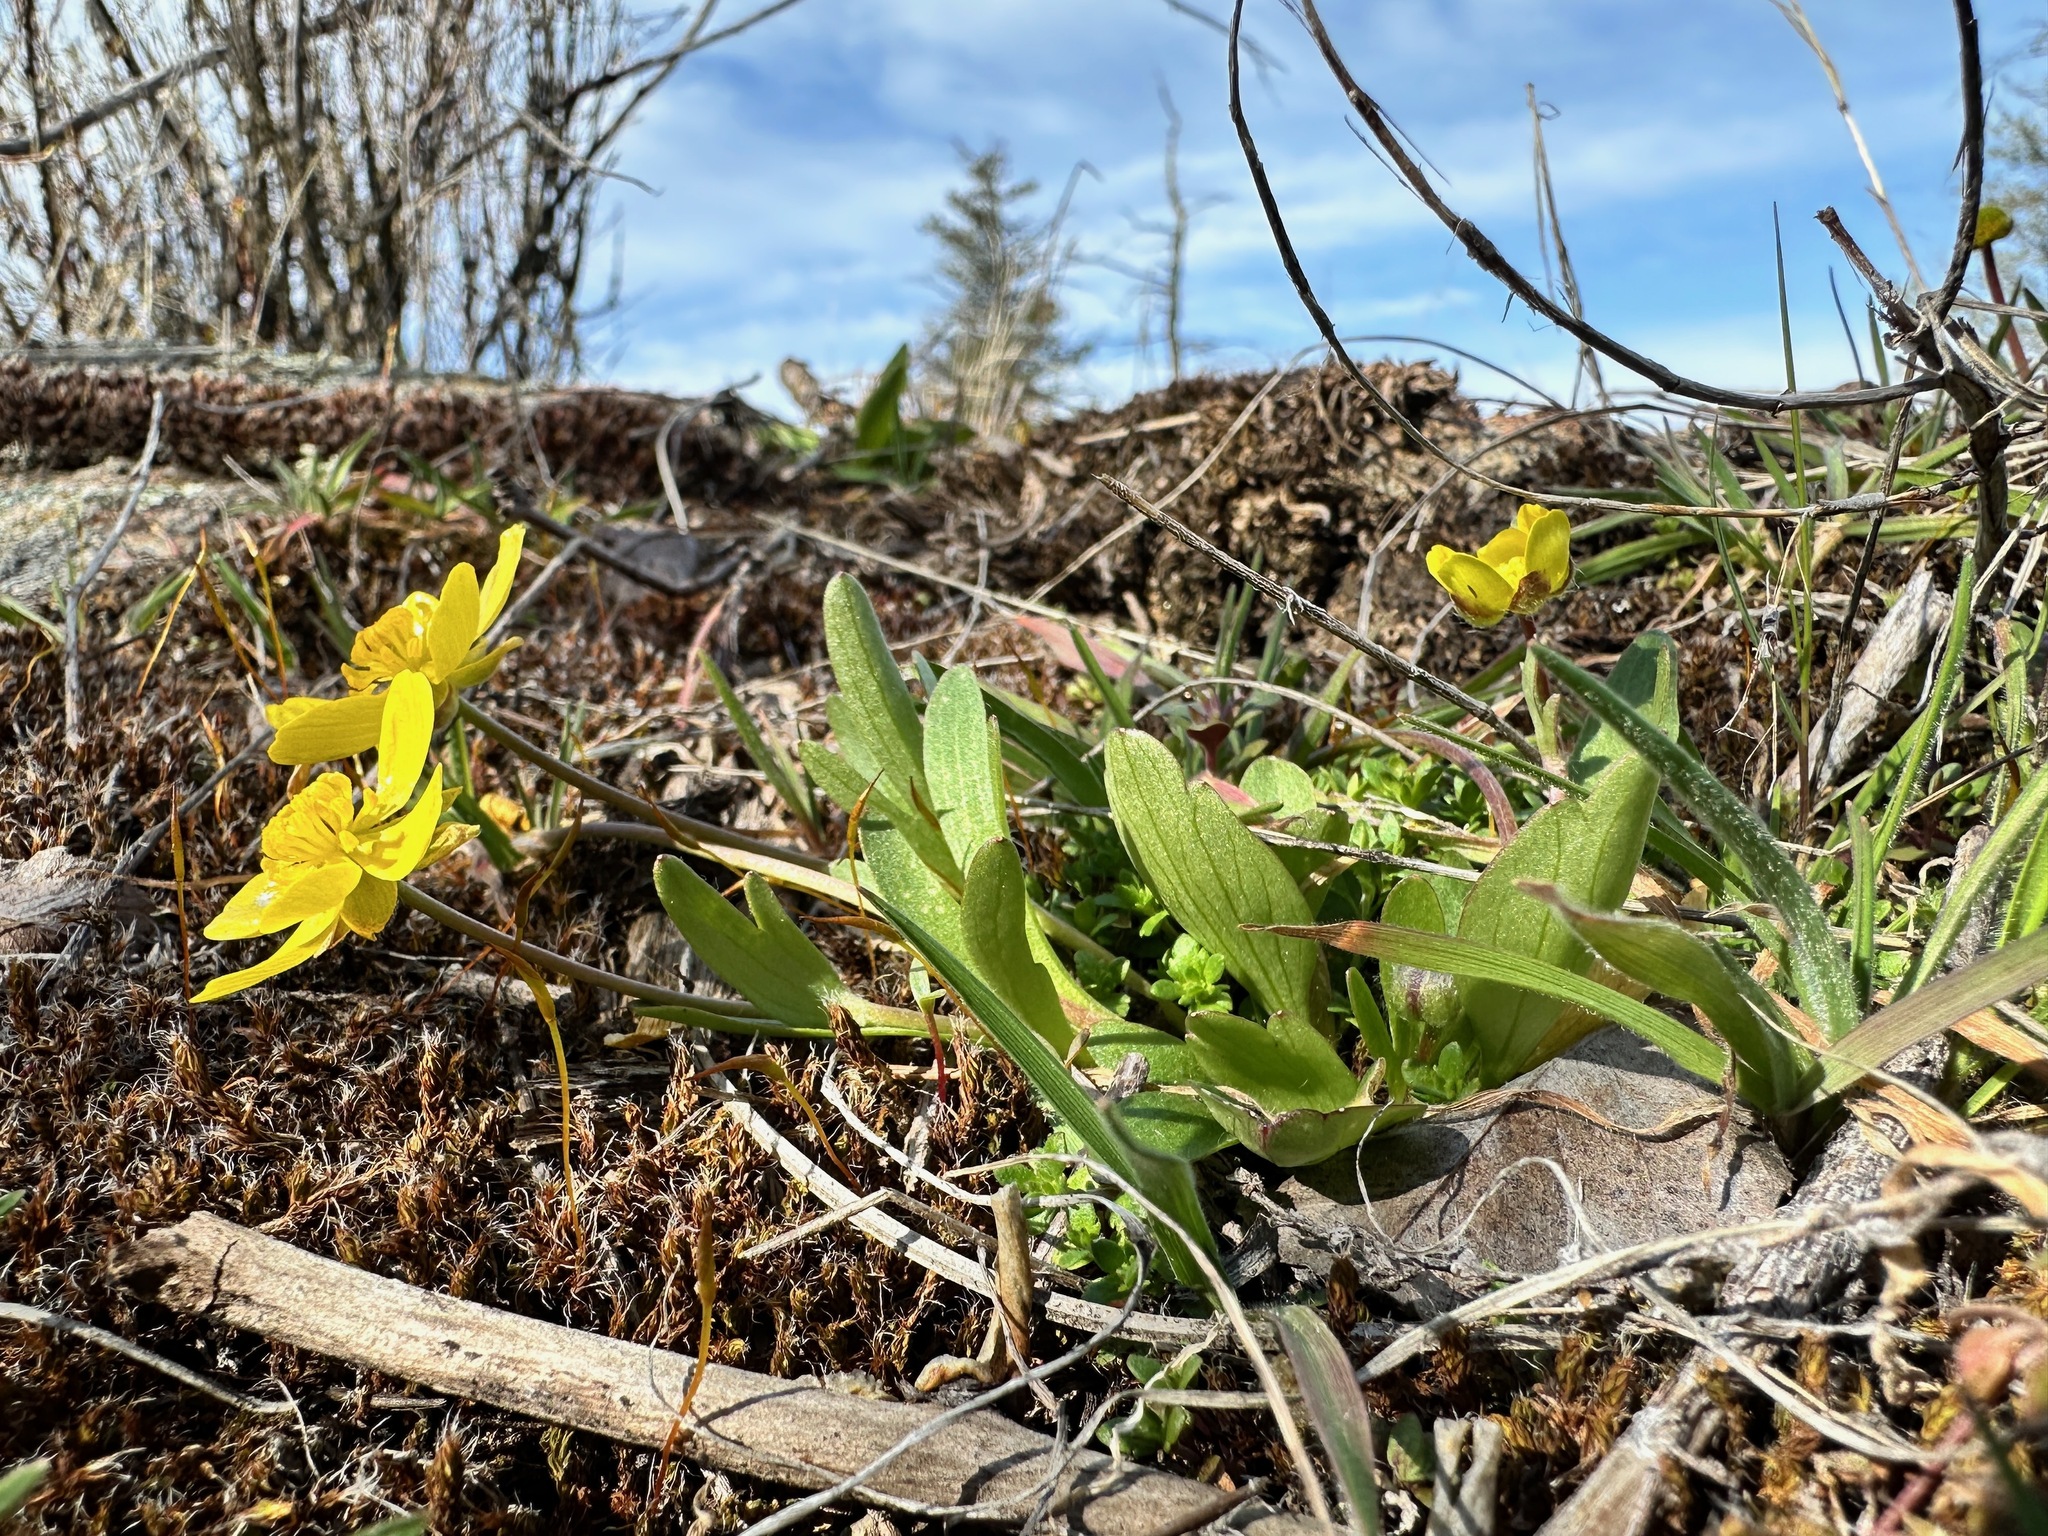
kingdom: Plantae
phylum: Tracheophyta
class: Magnoliopsida
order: Ranunculales
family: Ranunculaceae
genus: Ranunculus
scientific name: Ranunculus glaberrimus
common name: Sagebrush buttercup
